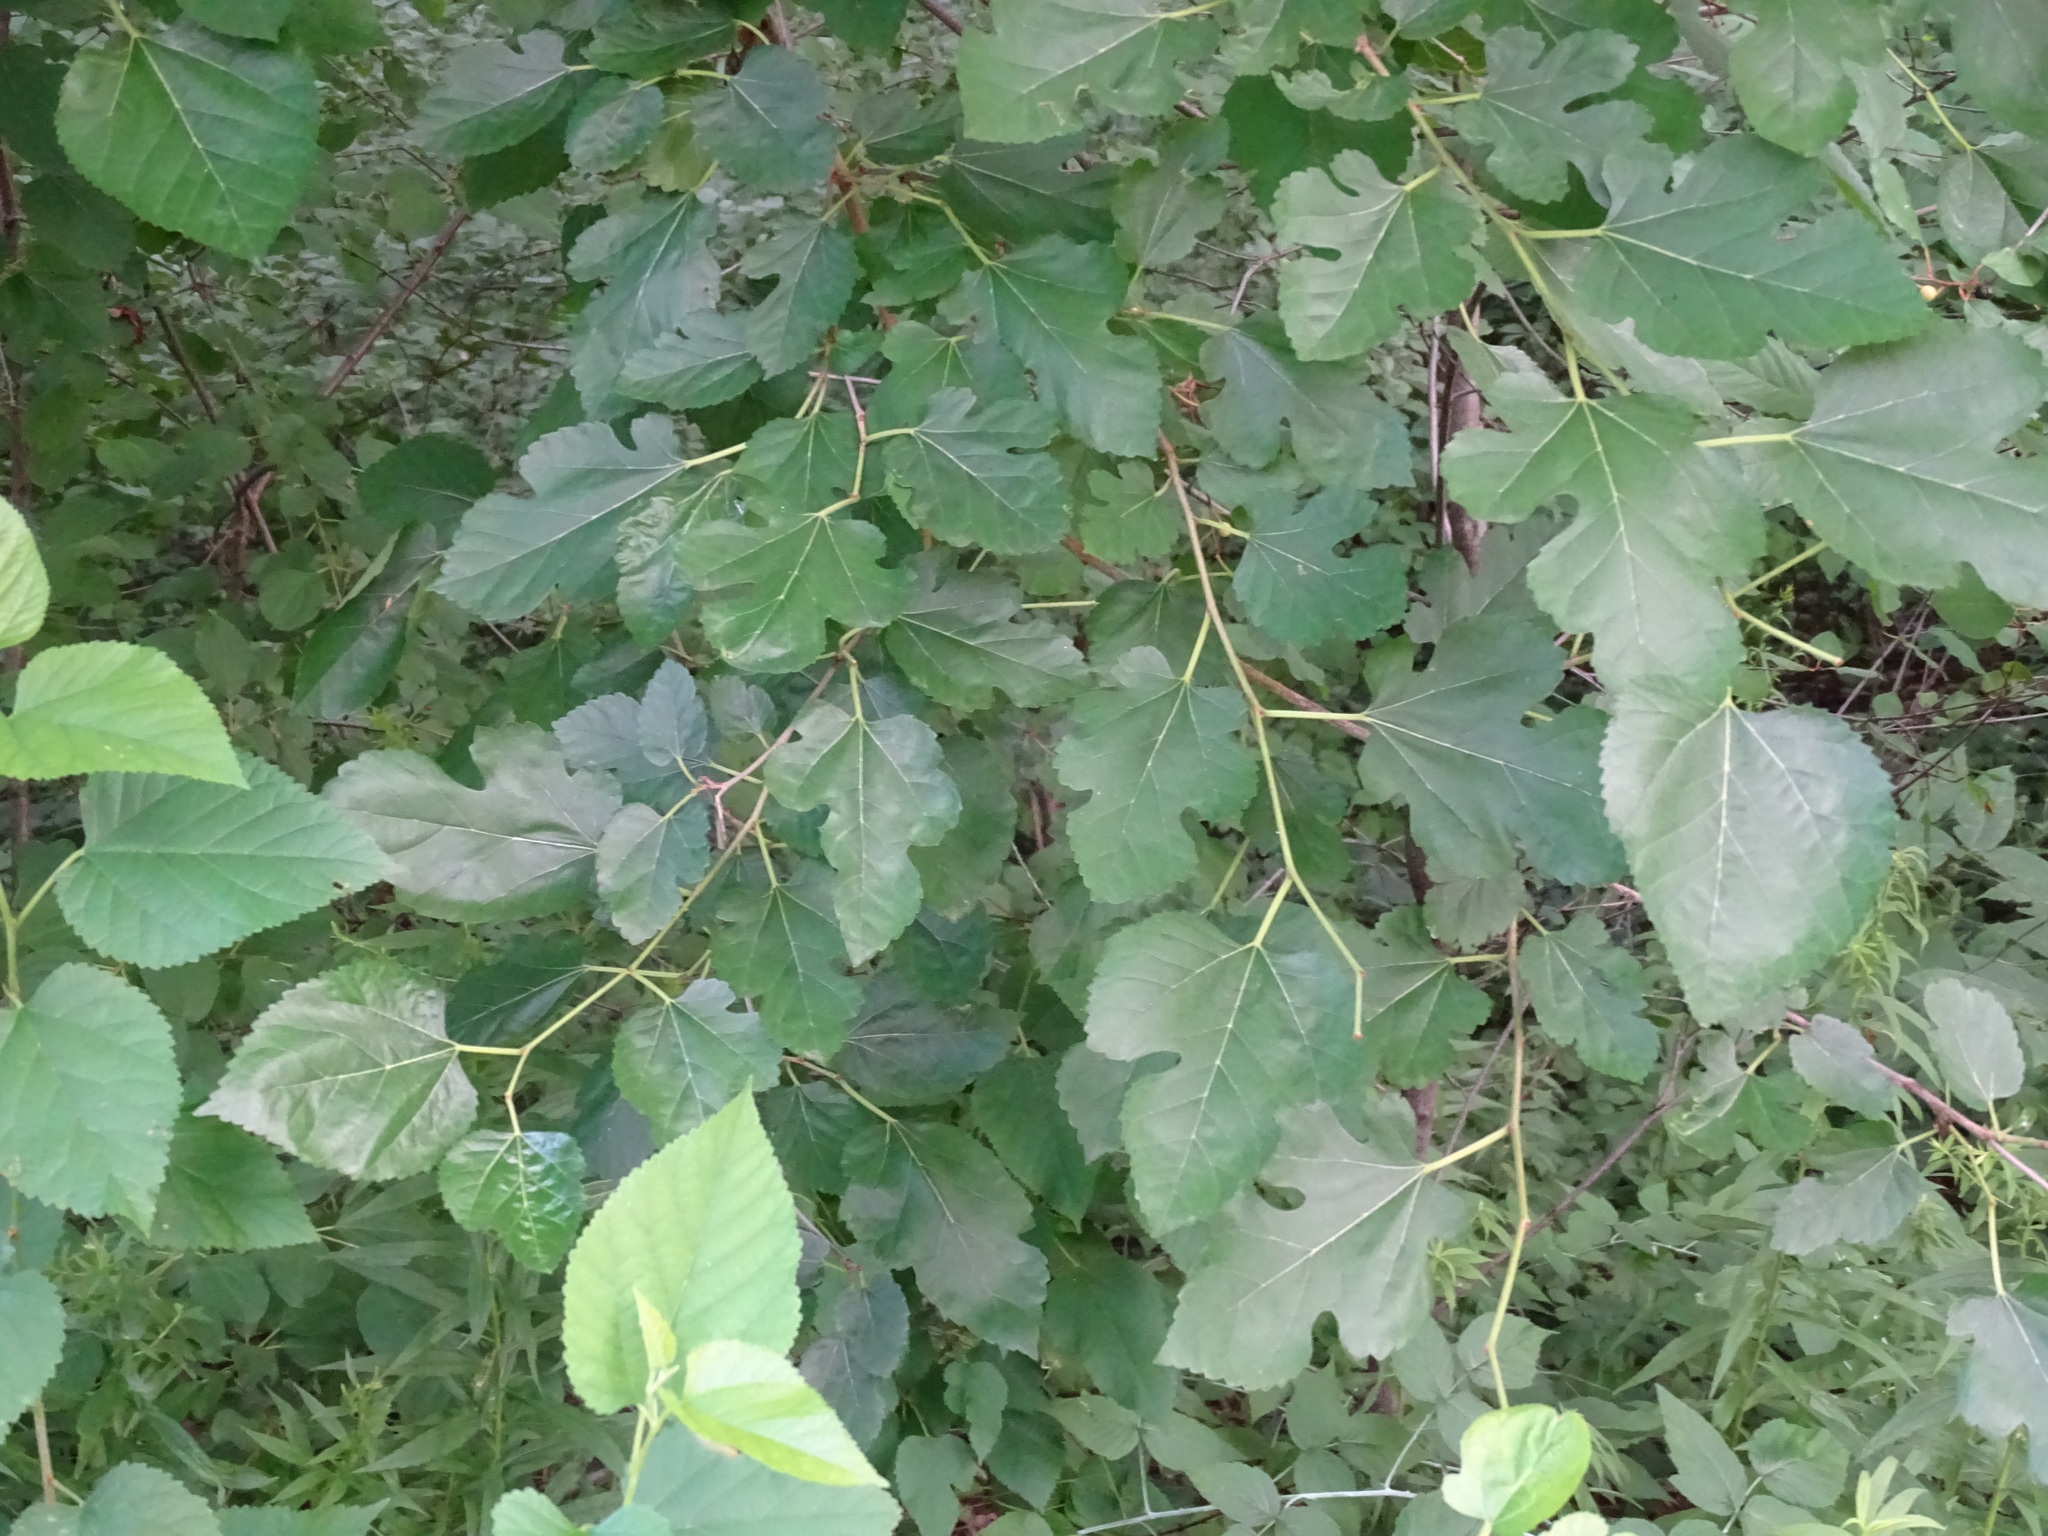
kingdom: Plantae
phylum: Tracheophyta
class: Magnoliopsida
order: Rosales
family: Moraceae
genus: Morus
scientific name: Morus alba
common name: White mulberry
